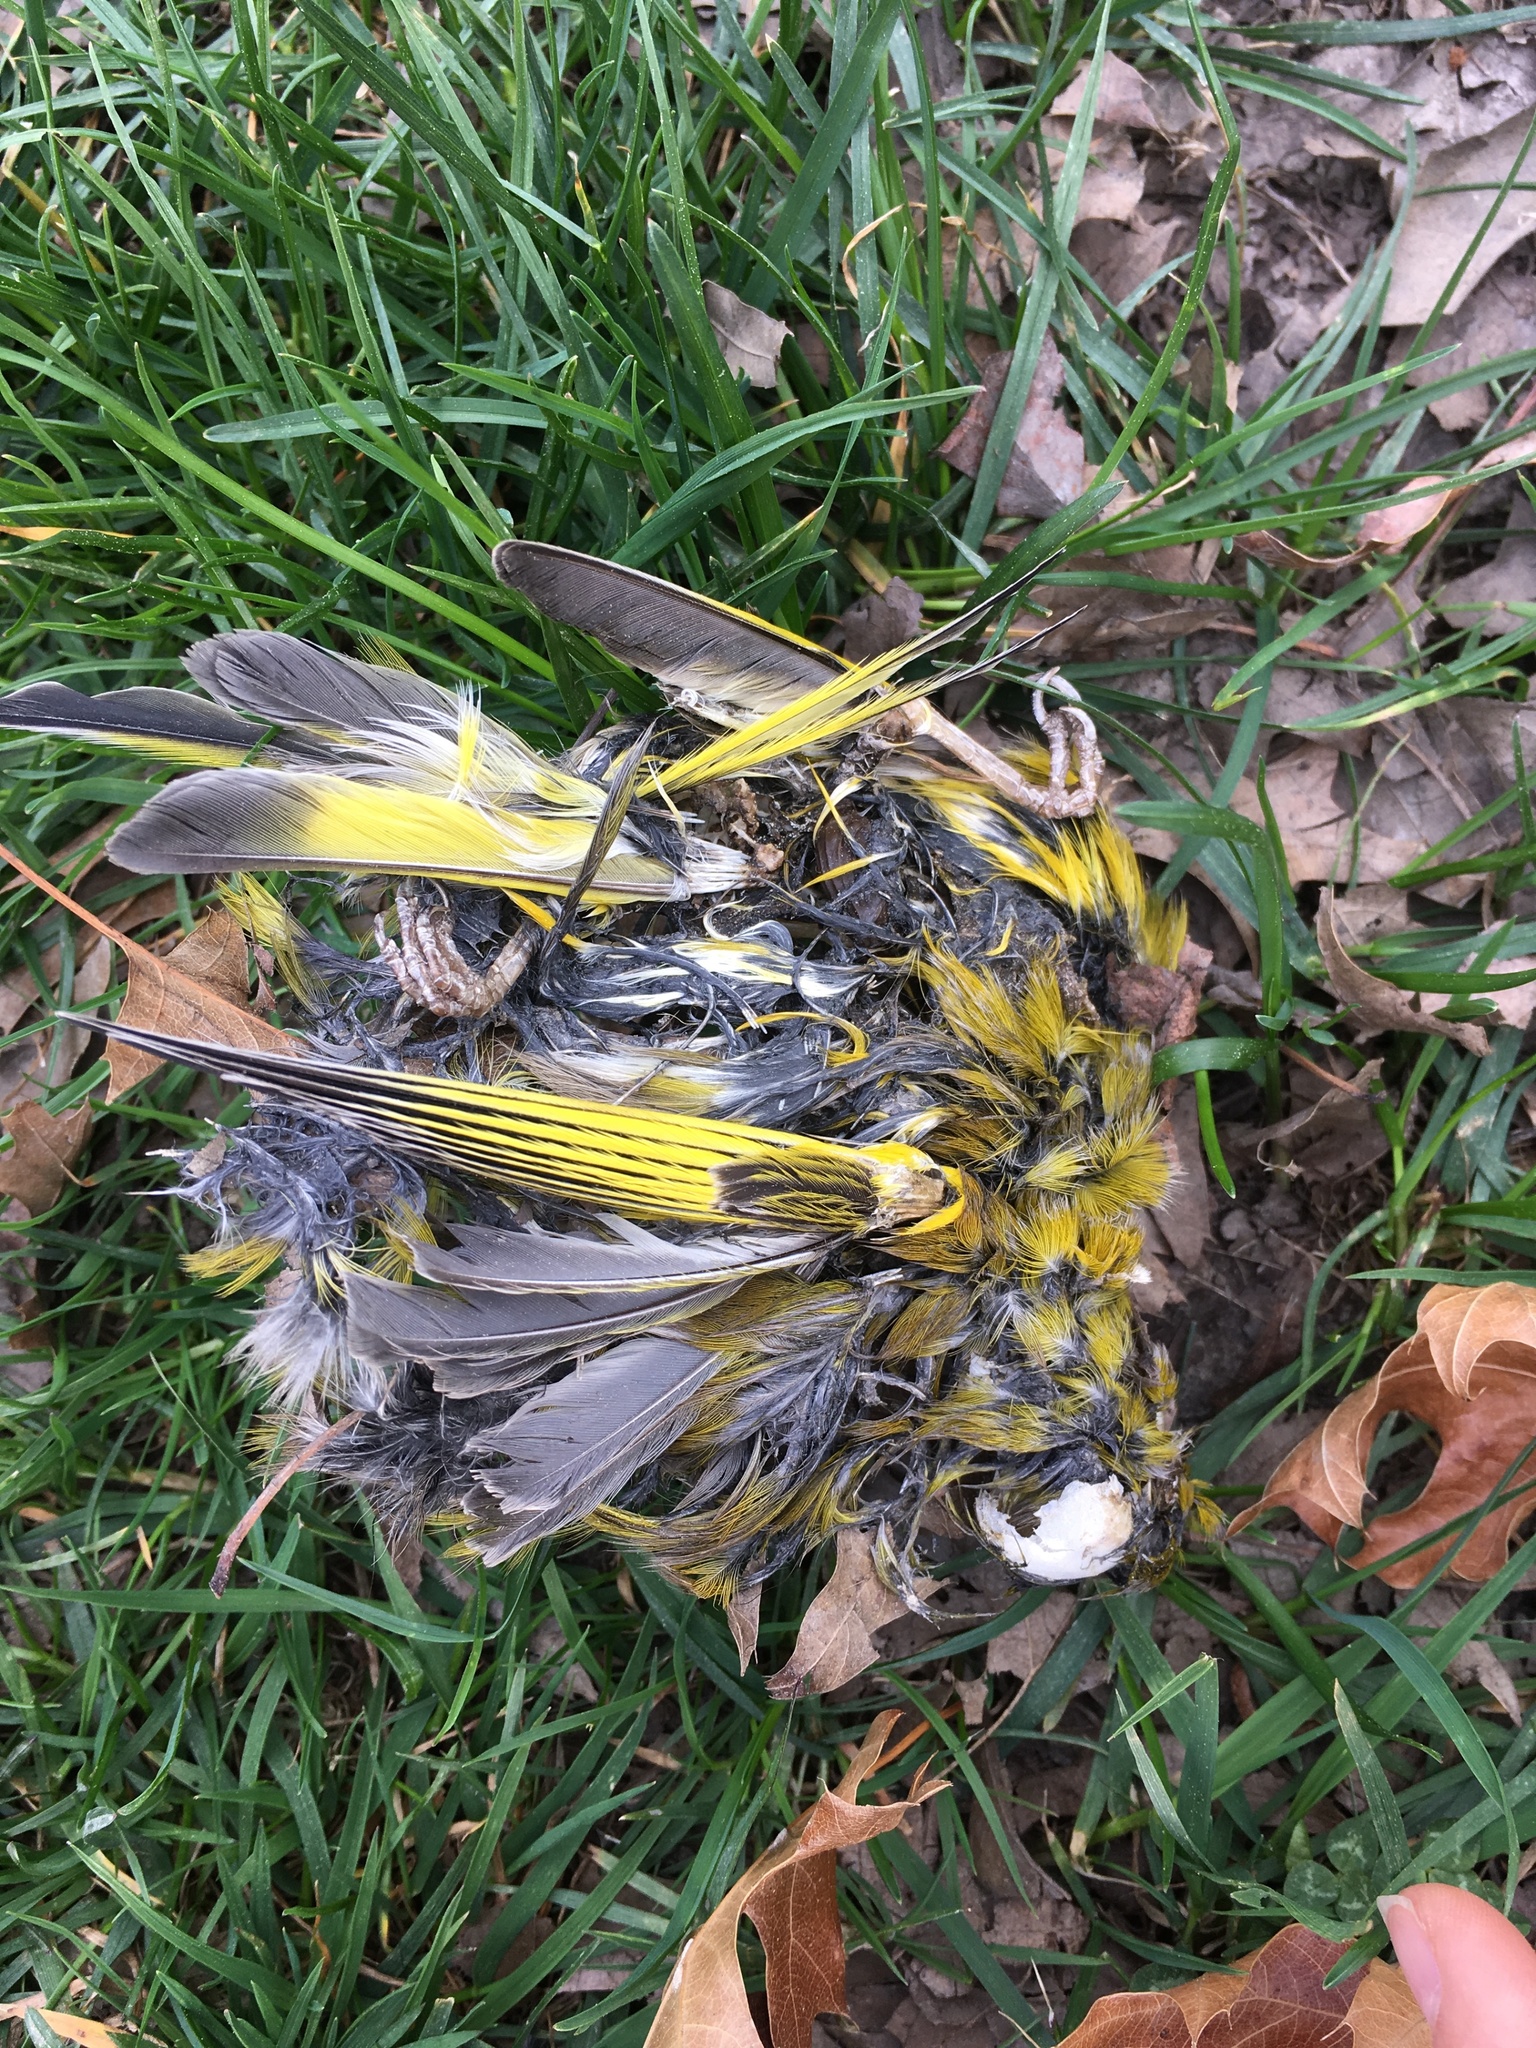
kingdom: Plantae
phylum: Tracheophyta
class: Liliopsida
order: Poales
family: Poaceae
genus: Chloris
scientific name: Chloris chloris
